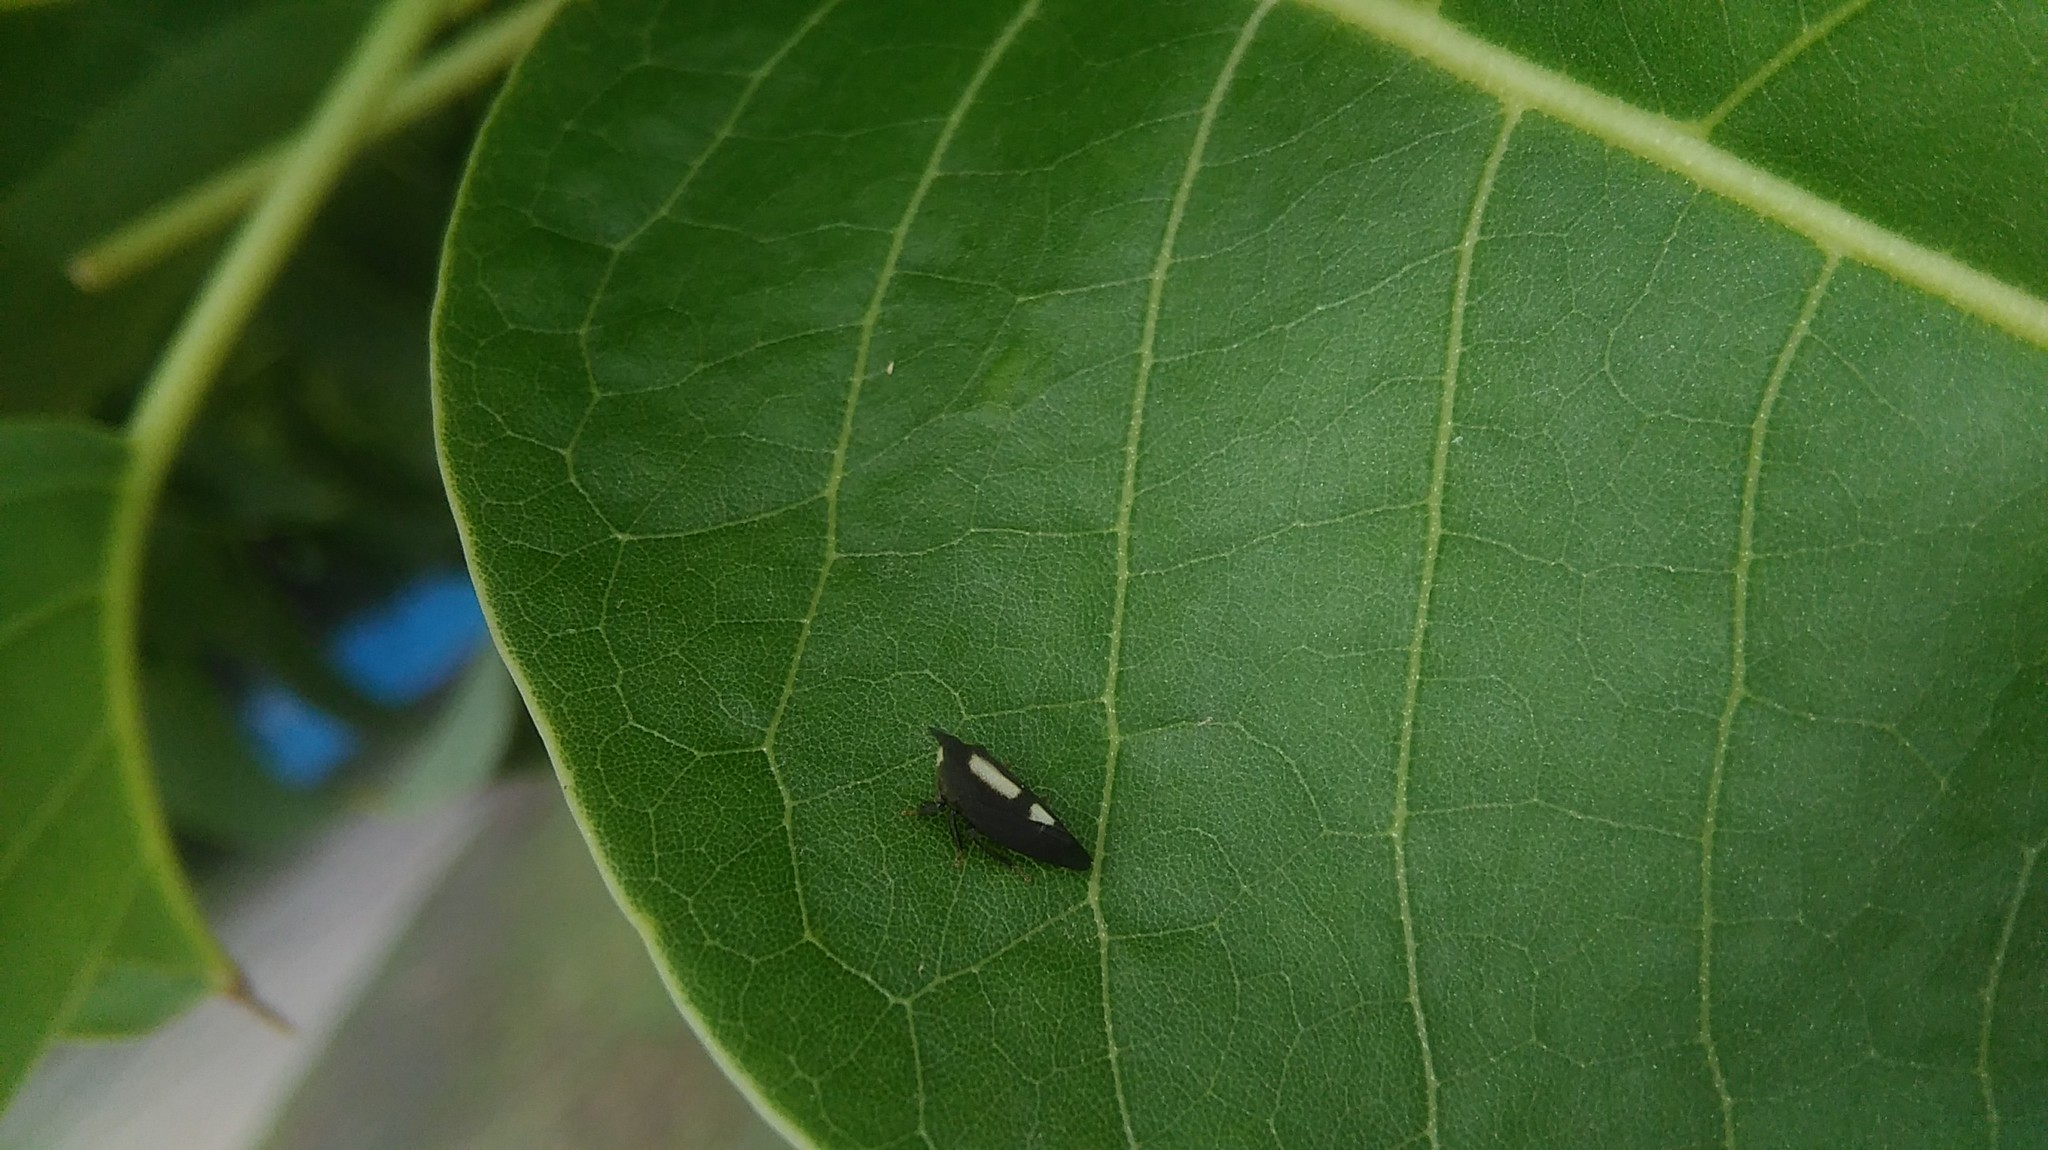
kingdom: Animalia
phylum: Arthropoda
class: Insecta
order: Hemiptera
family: Membracidae
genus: Enchenopa
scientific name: Enchenopa
